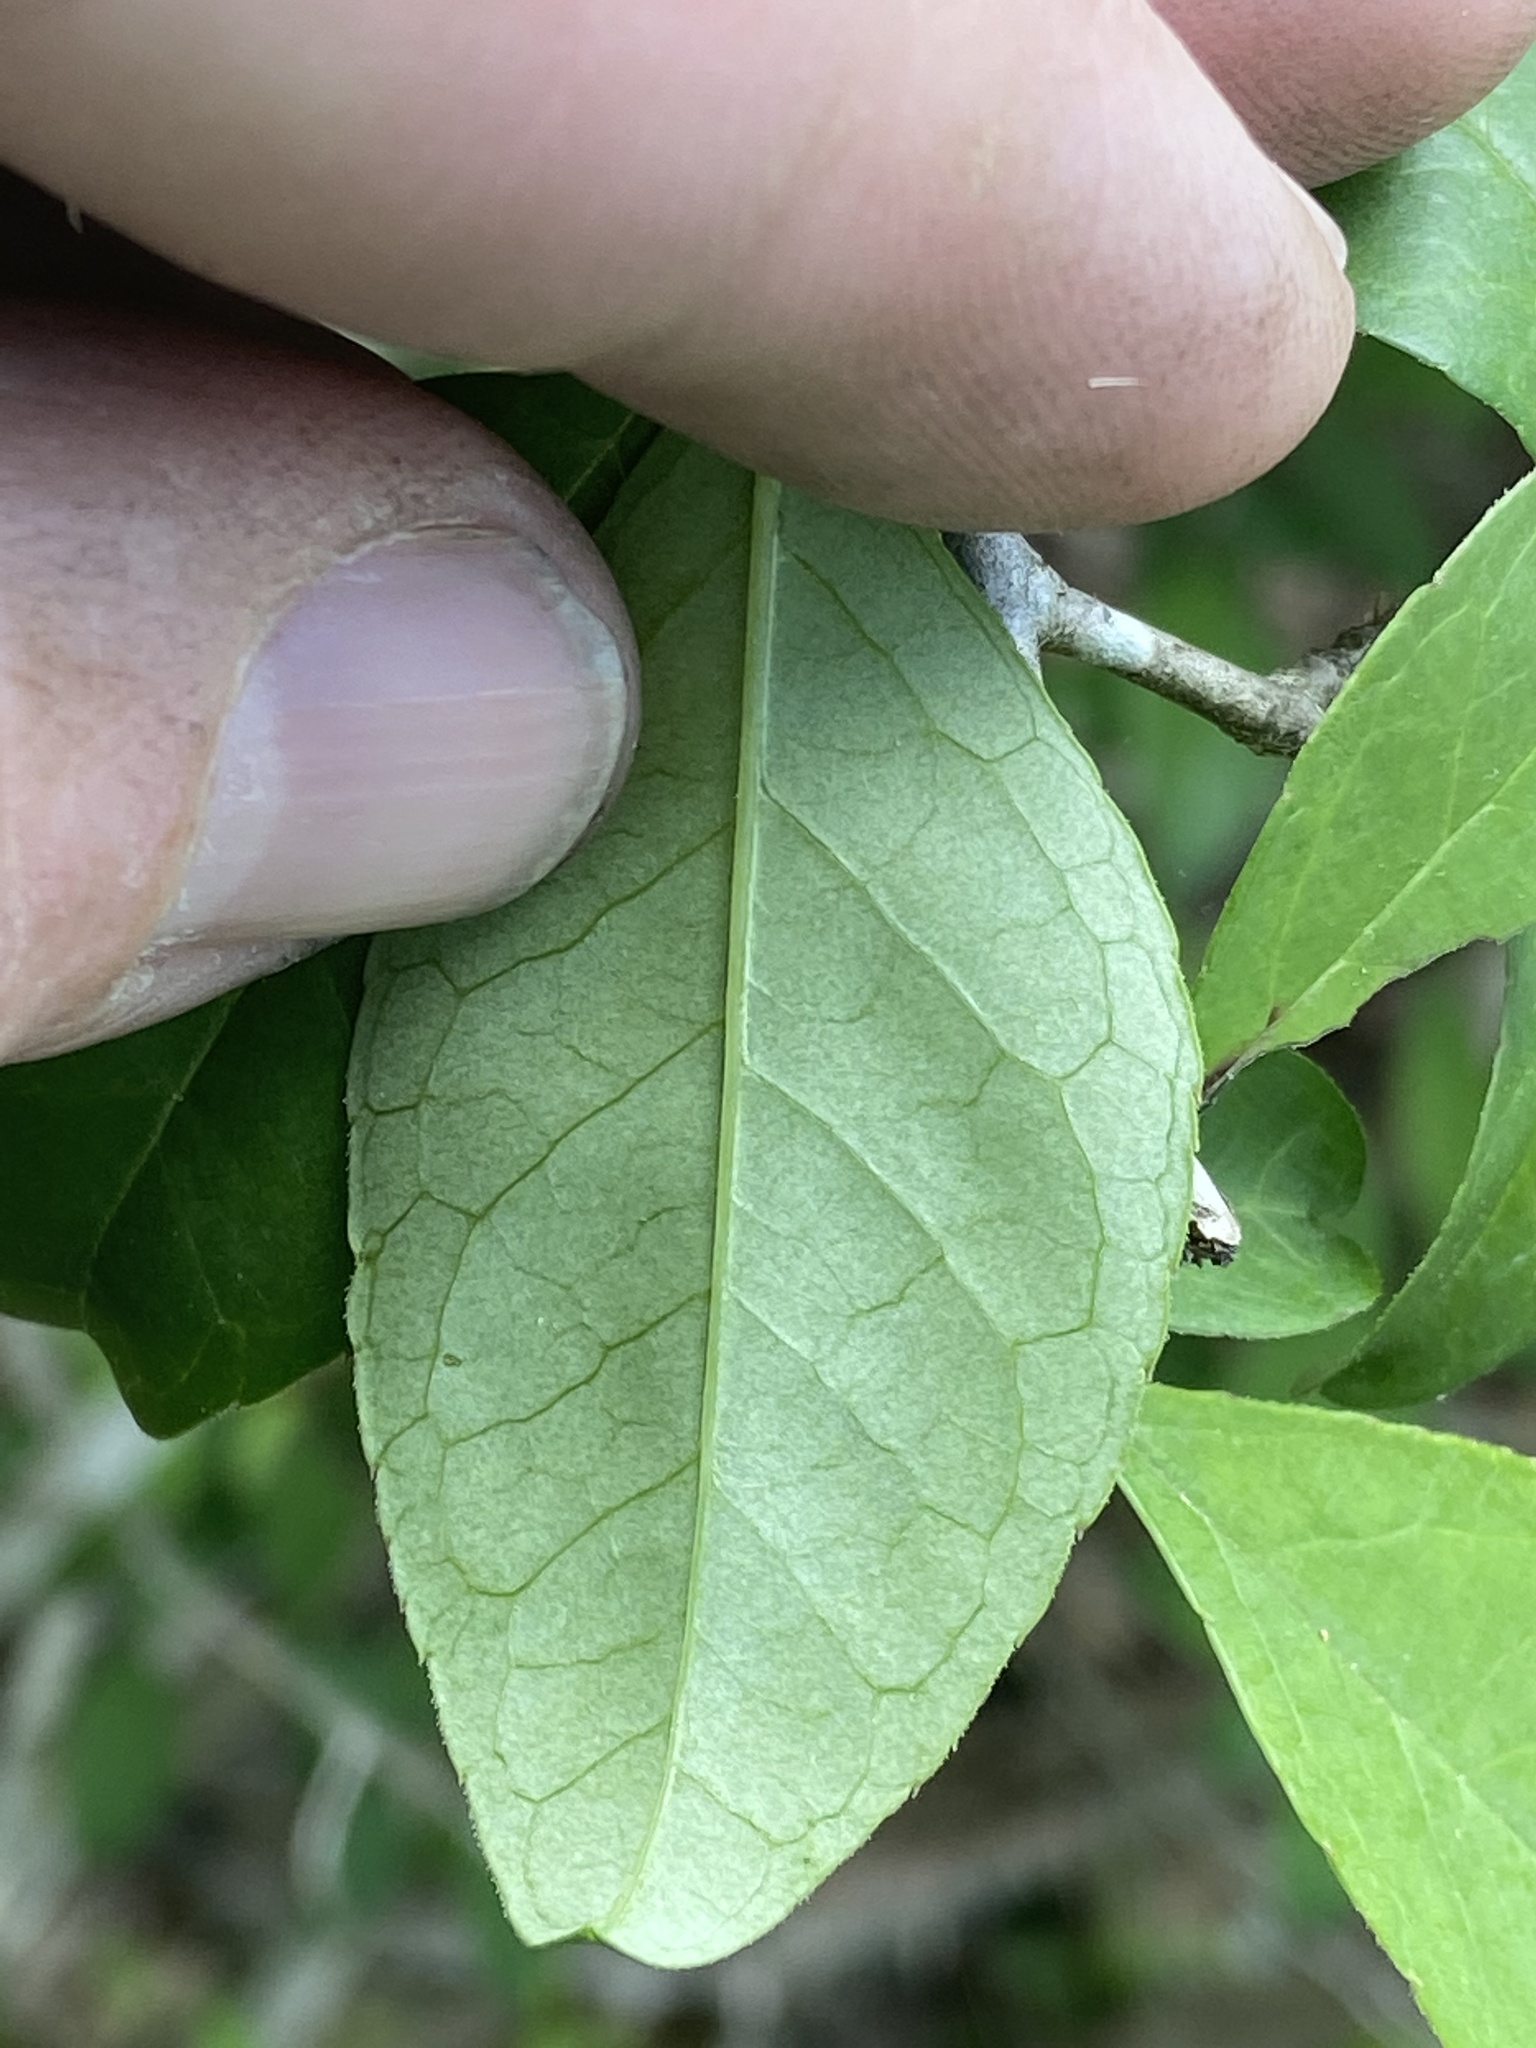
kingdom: Plantae
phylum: Tracheophyta
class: Magnoliopsida
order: Aquifoliales
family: Aquifoliaceae
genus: Ilex
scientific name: Ilex longipes
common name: Georgia holly
